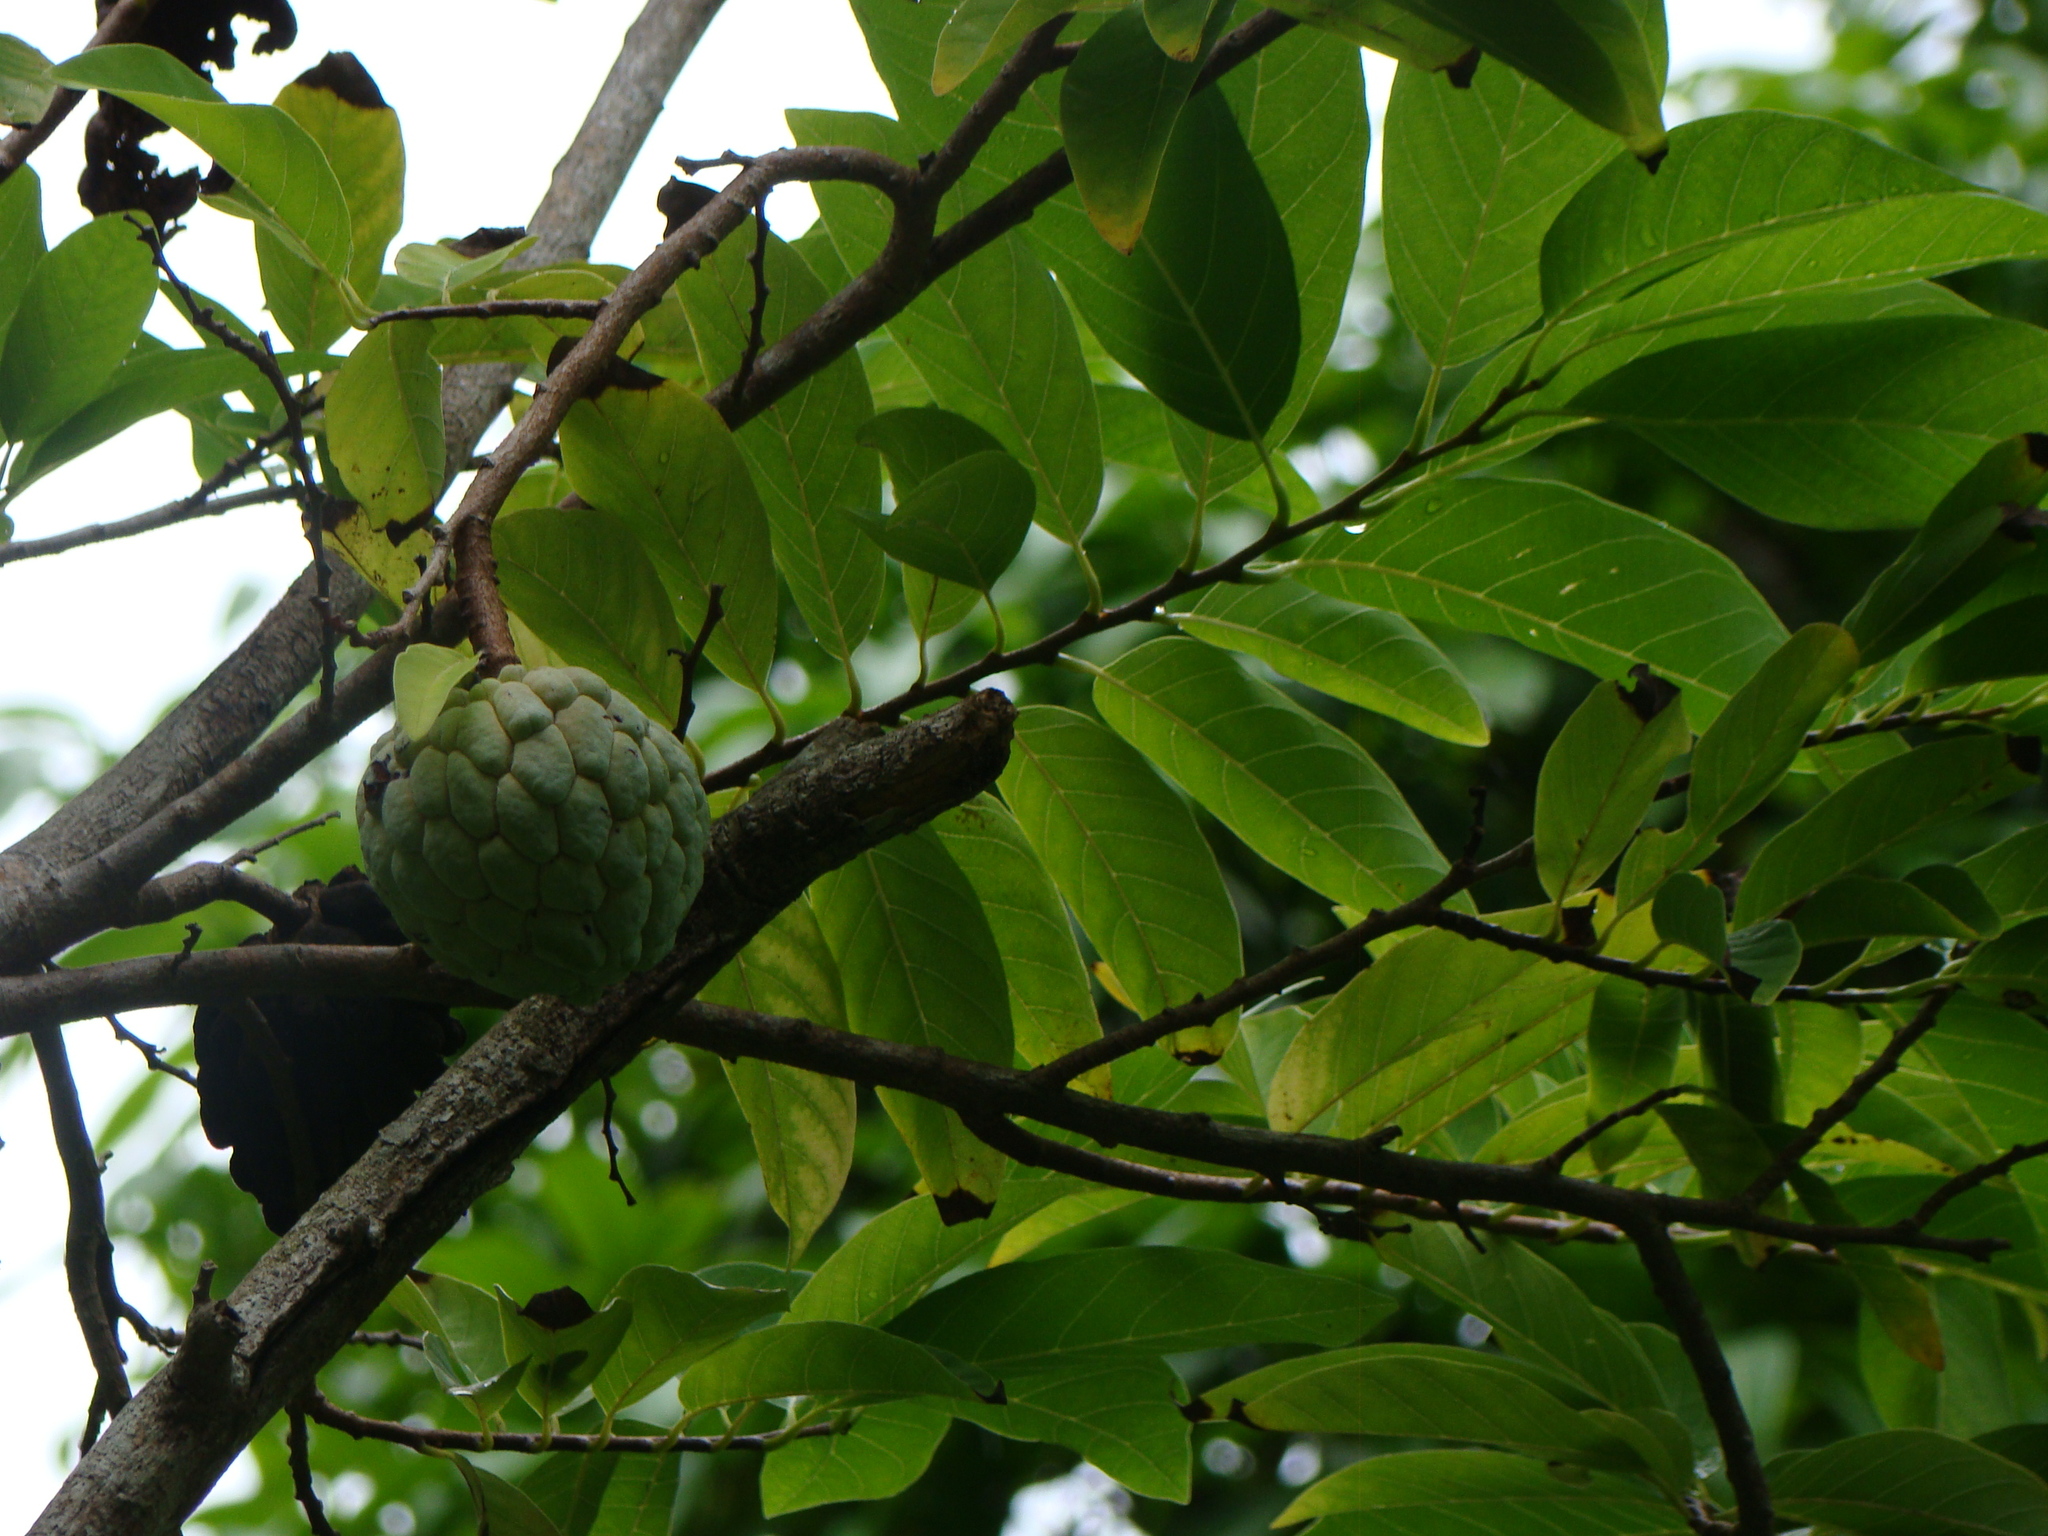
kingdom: Plantae
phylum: Tracheophyta
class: Magnoliopsida
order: Magnoliales
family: Annonaceae
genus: Annona
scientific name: Annona squamosa
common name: Custard-apple
